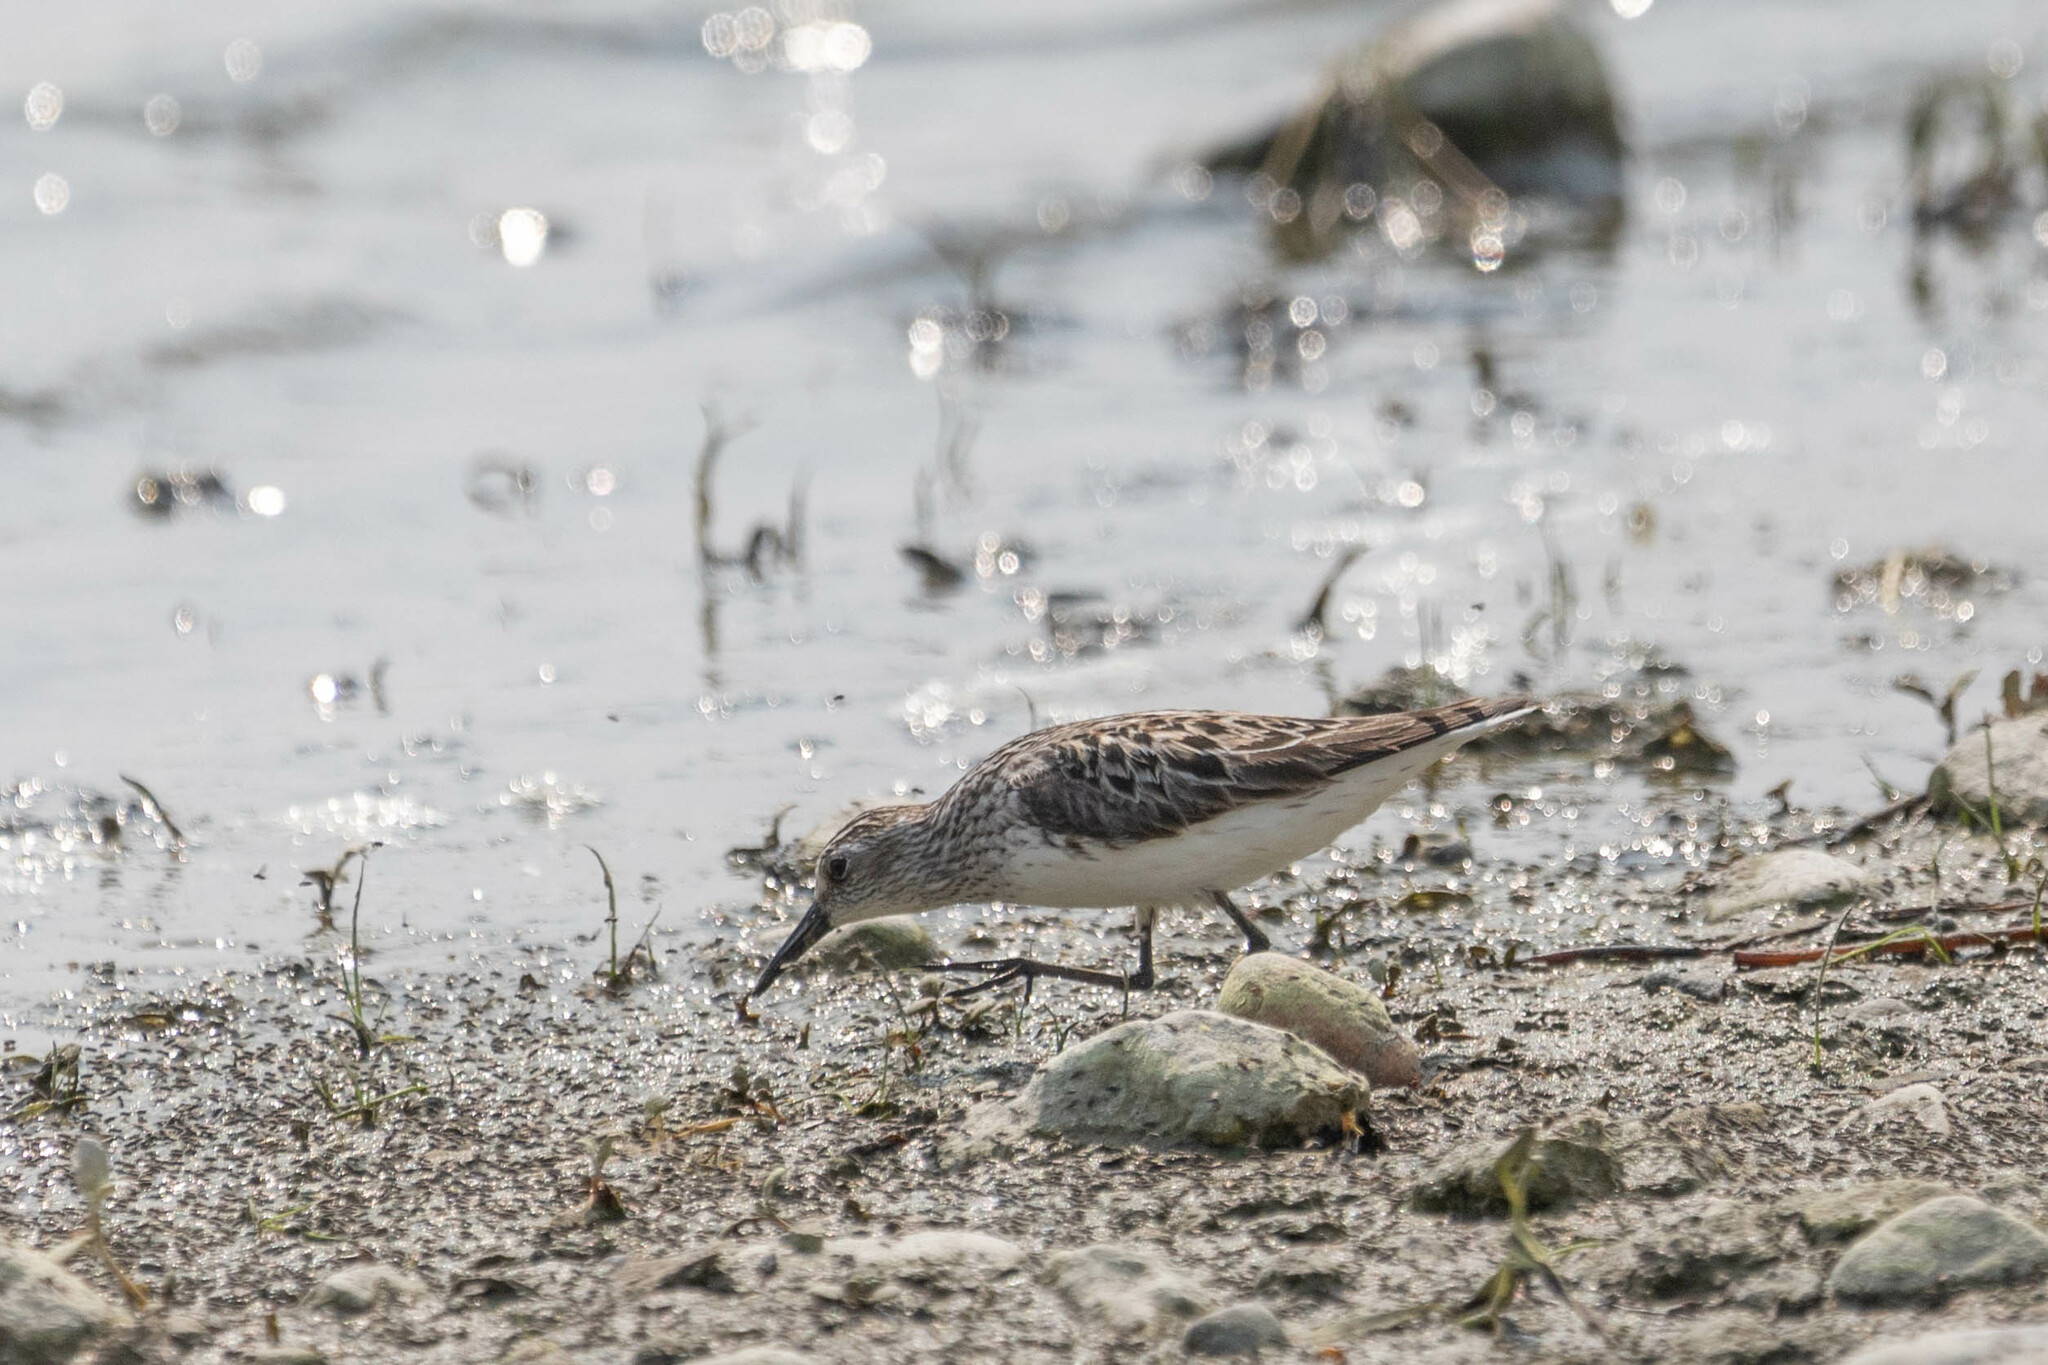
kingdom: Animalia
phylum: Chordata
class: Aves
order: Charadriiformes
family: Scolopacidae
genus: Calidris
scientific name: Calidris pusilla
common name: Semipalmated sandpiper
